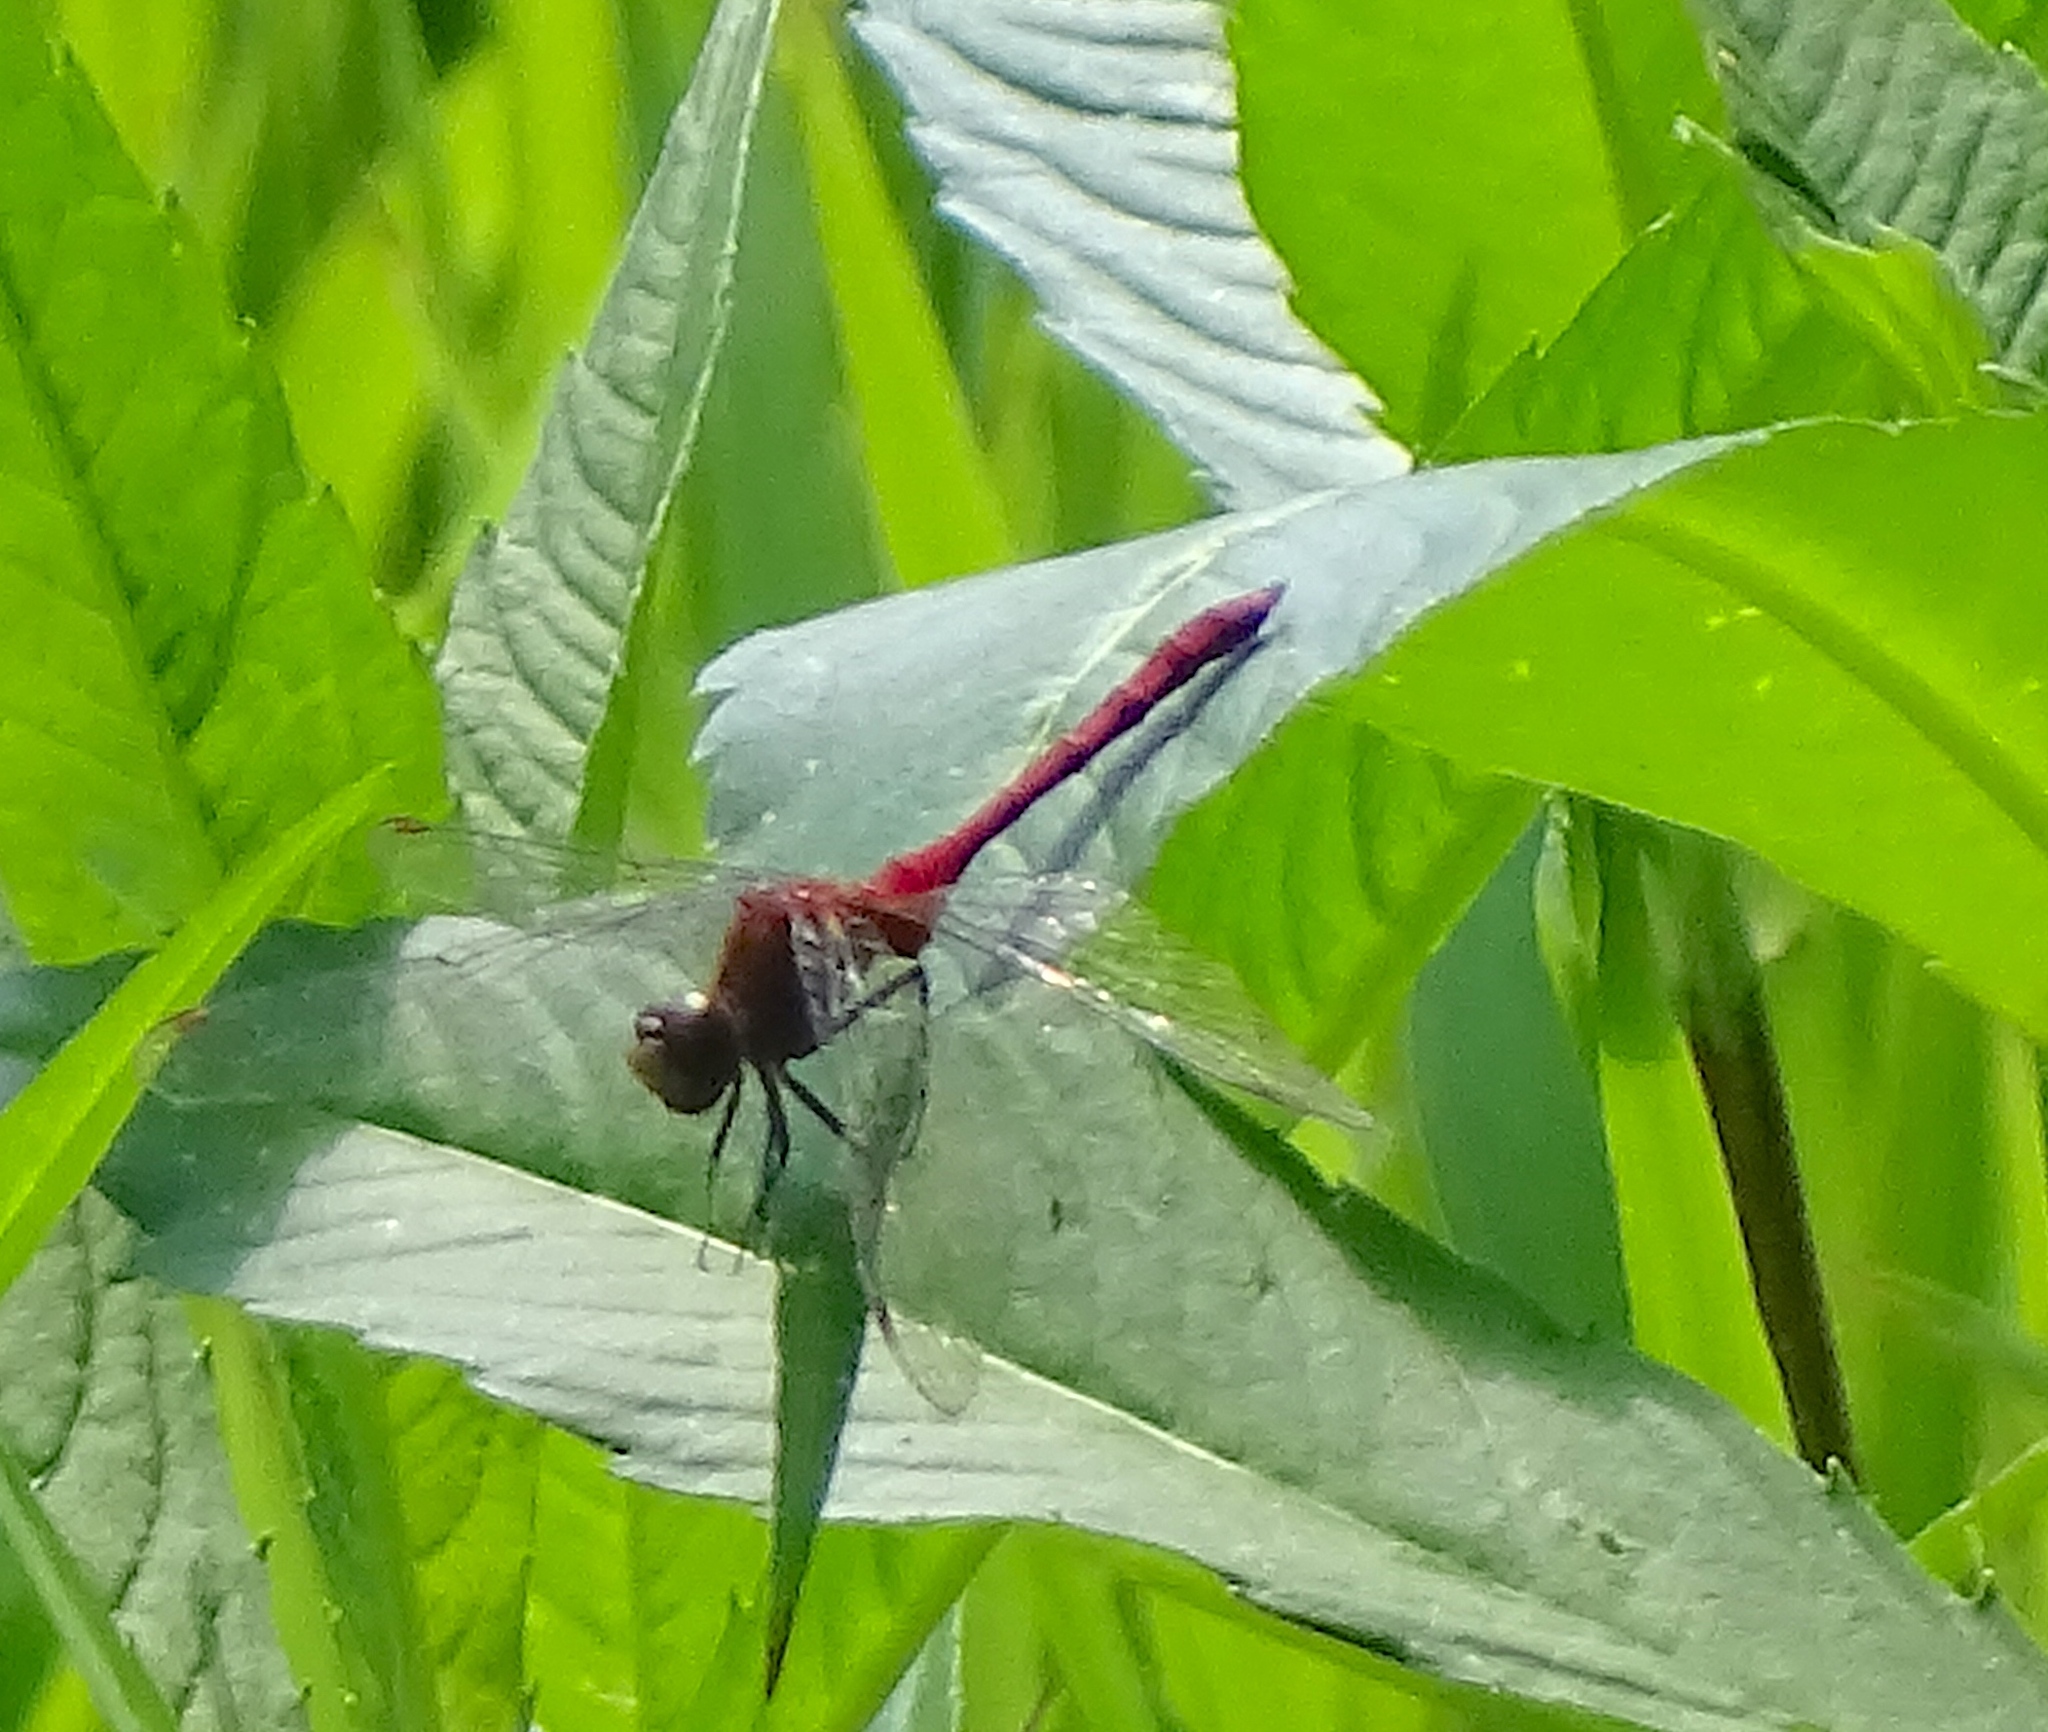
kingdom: Animalia
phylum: Arthropoda
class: Insecta
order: Odonata
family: Libellulidae
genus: Sympetrum
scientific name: Sympetrum
